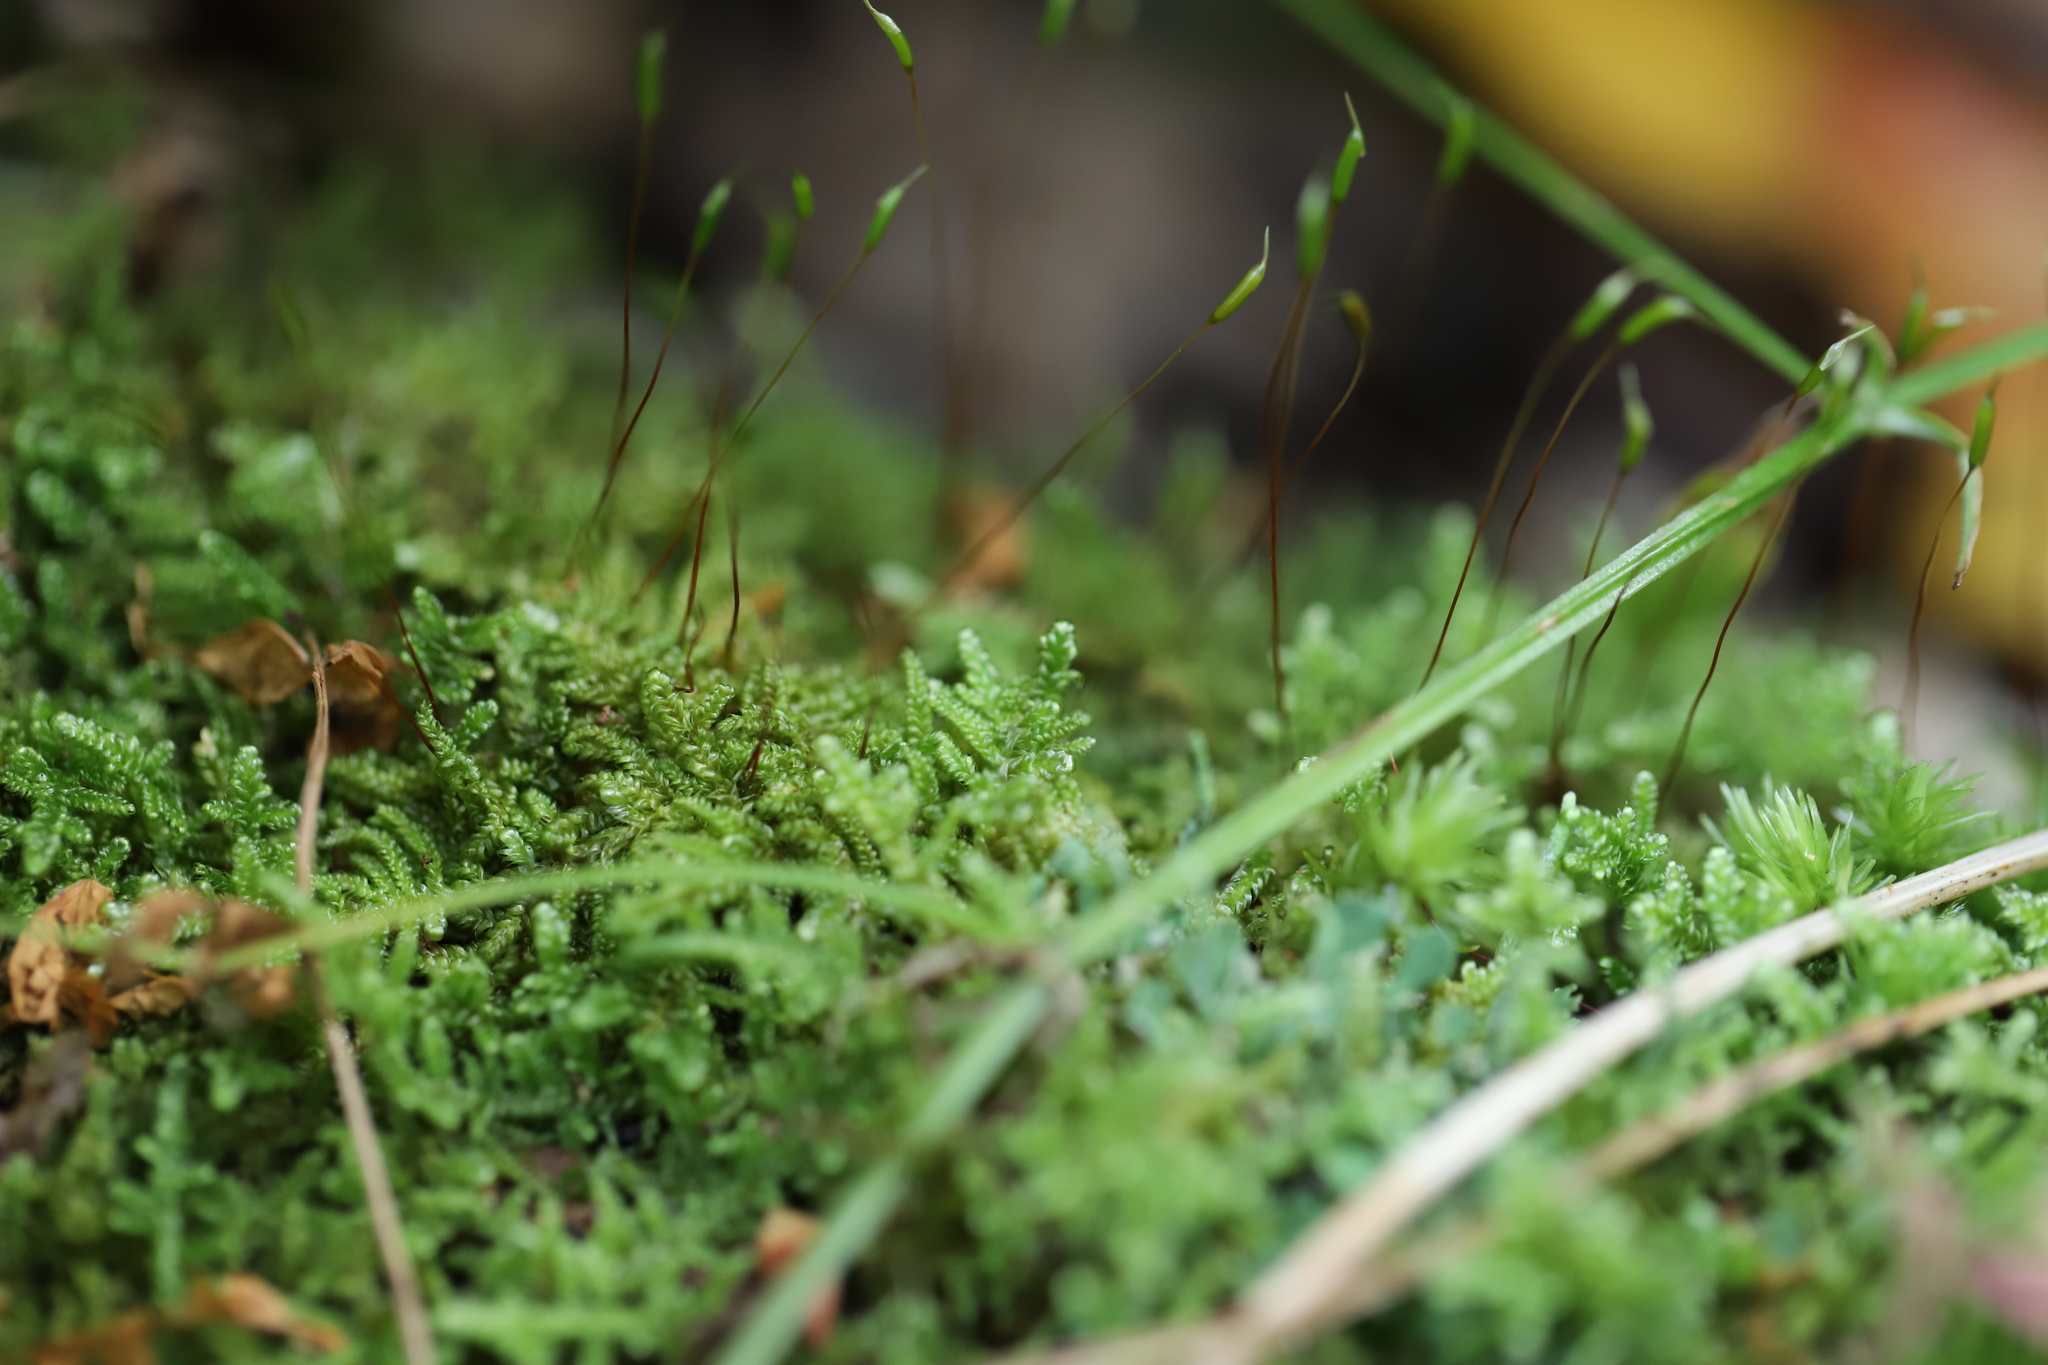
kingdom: Plantae
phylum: Bryophyta
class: Bryopsida
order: Hypnales
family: Callicladiaceae
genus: Callicladium
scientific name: Callicladium imponens
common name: Brocade moss
